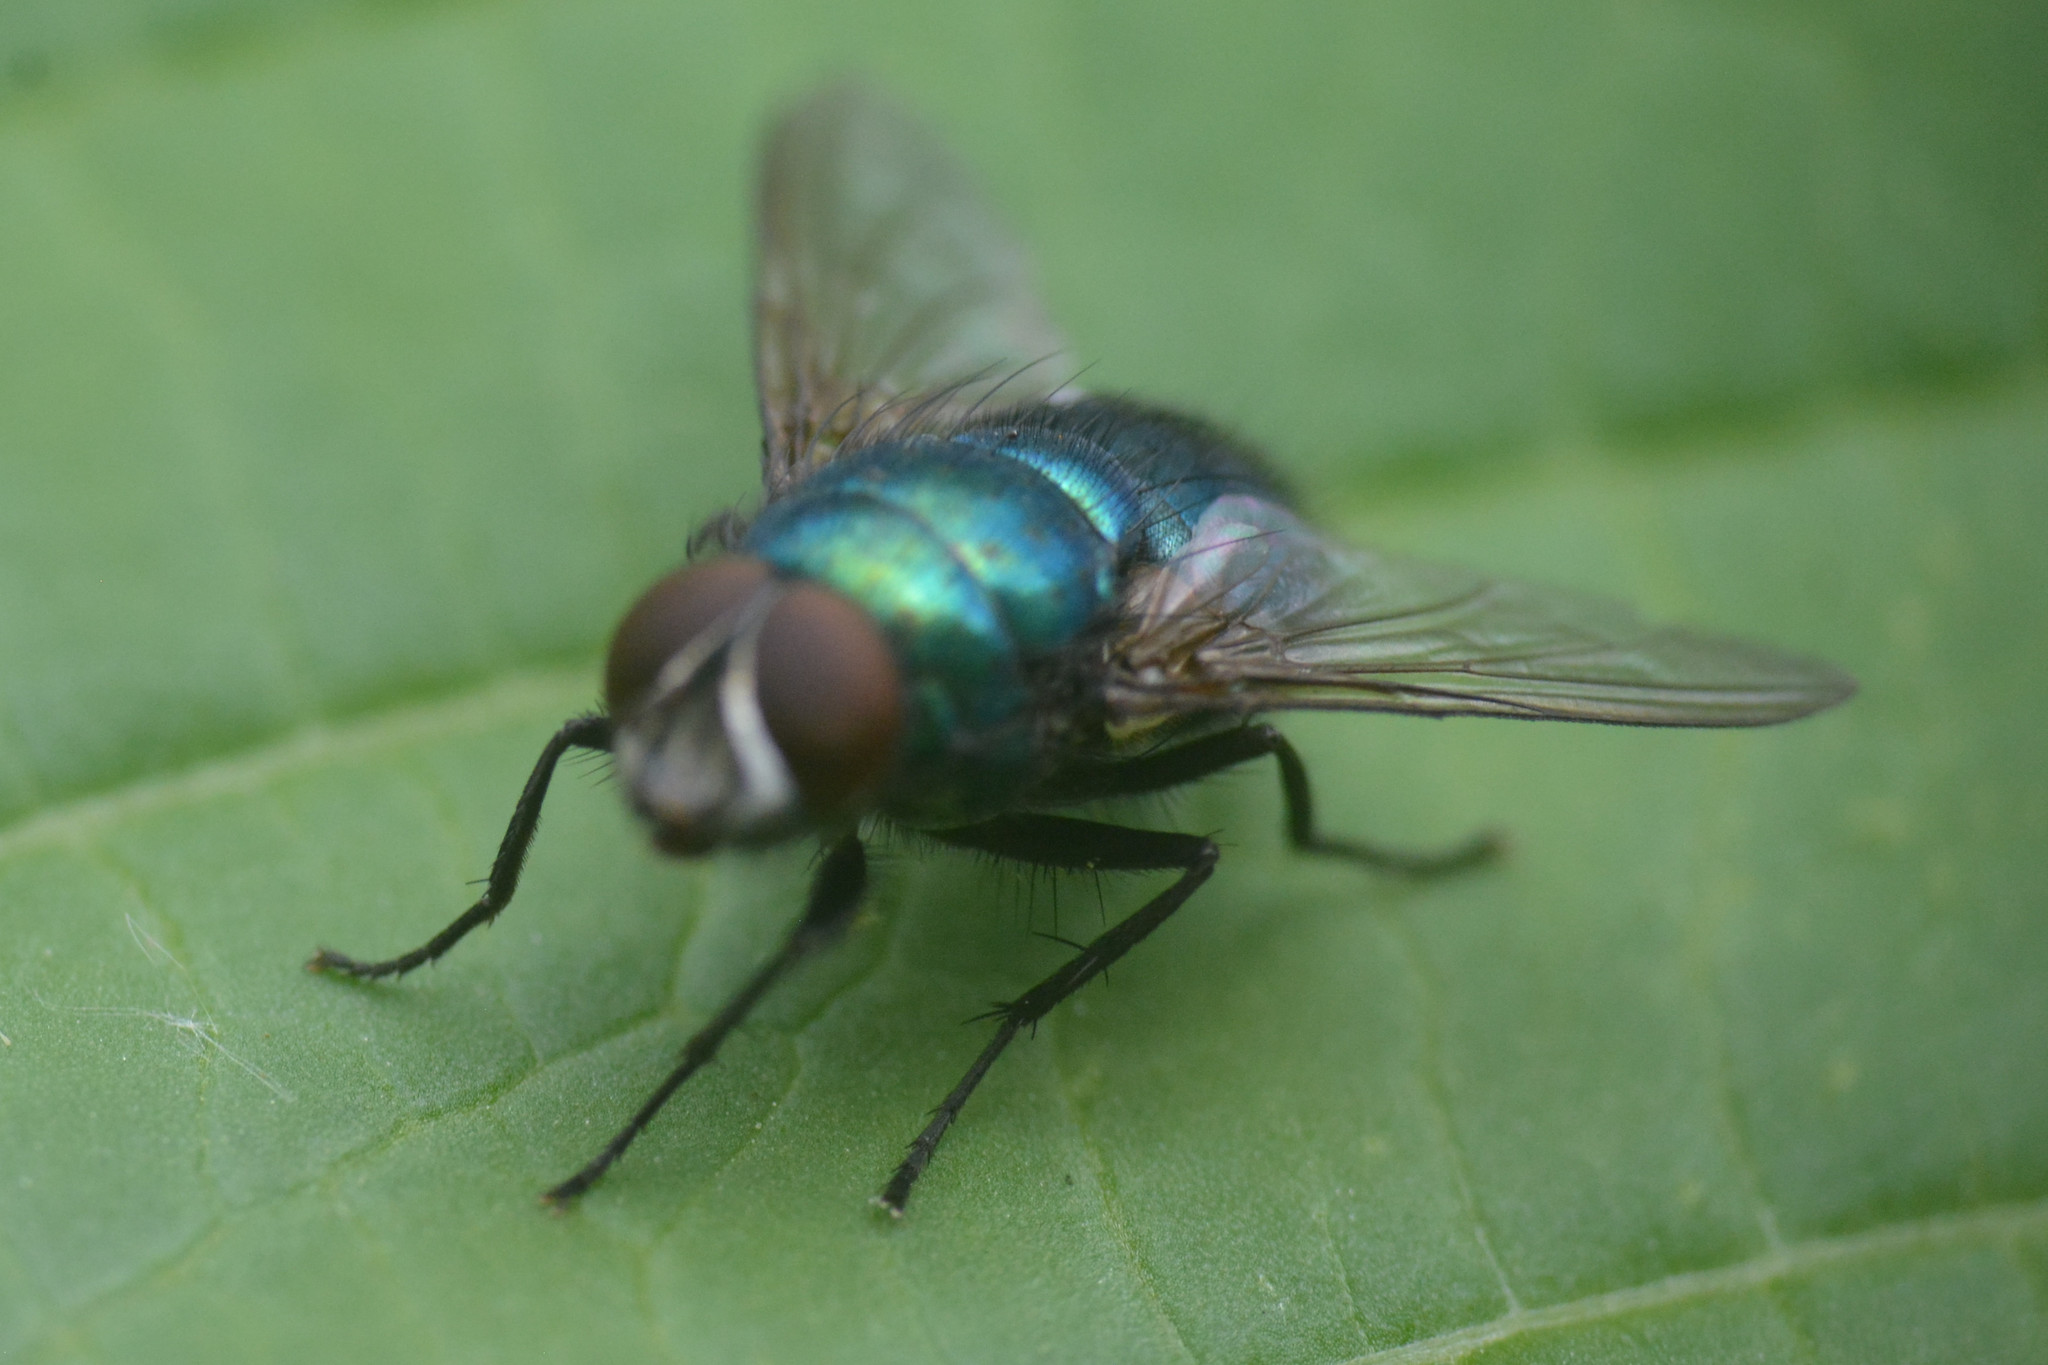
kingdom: Animalia
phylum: Arthropoda
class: Insecta
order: Diptera
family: Calliphoridae
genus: Lucilia
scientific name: Lucilia
